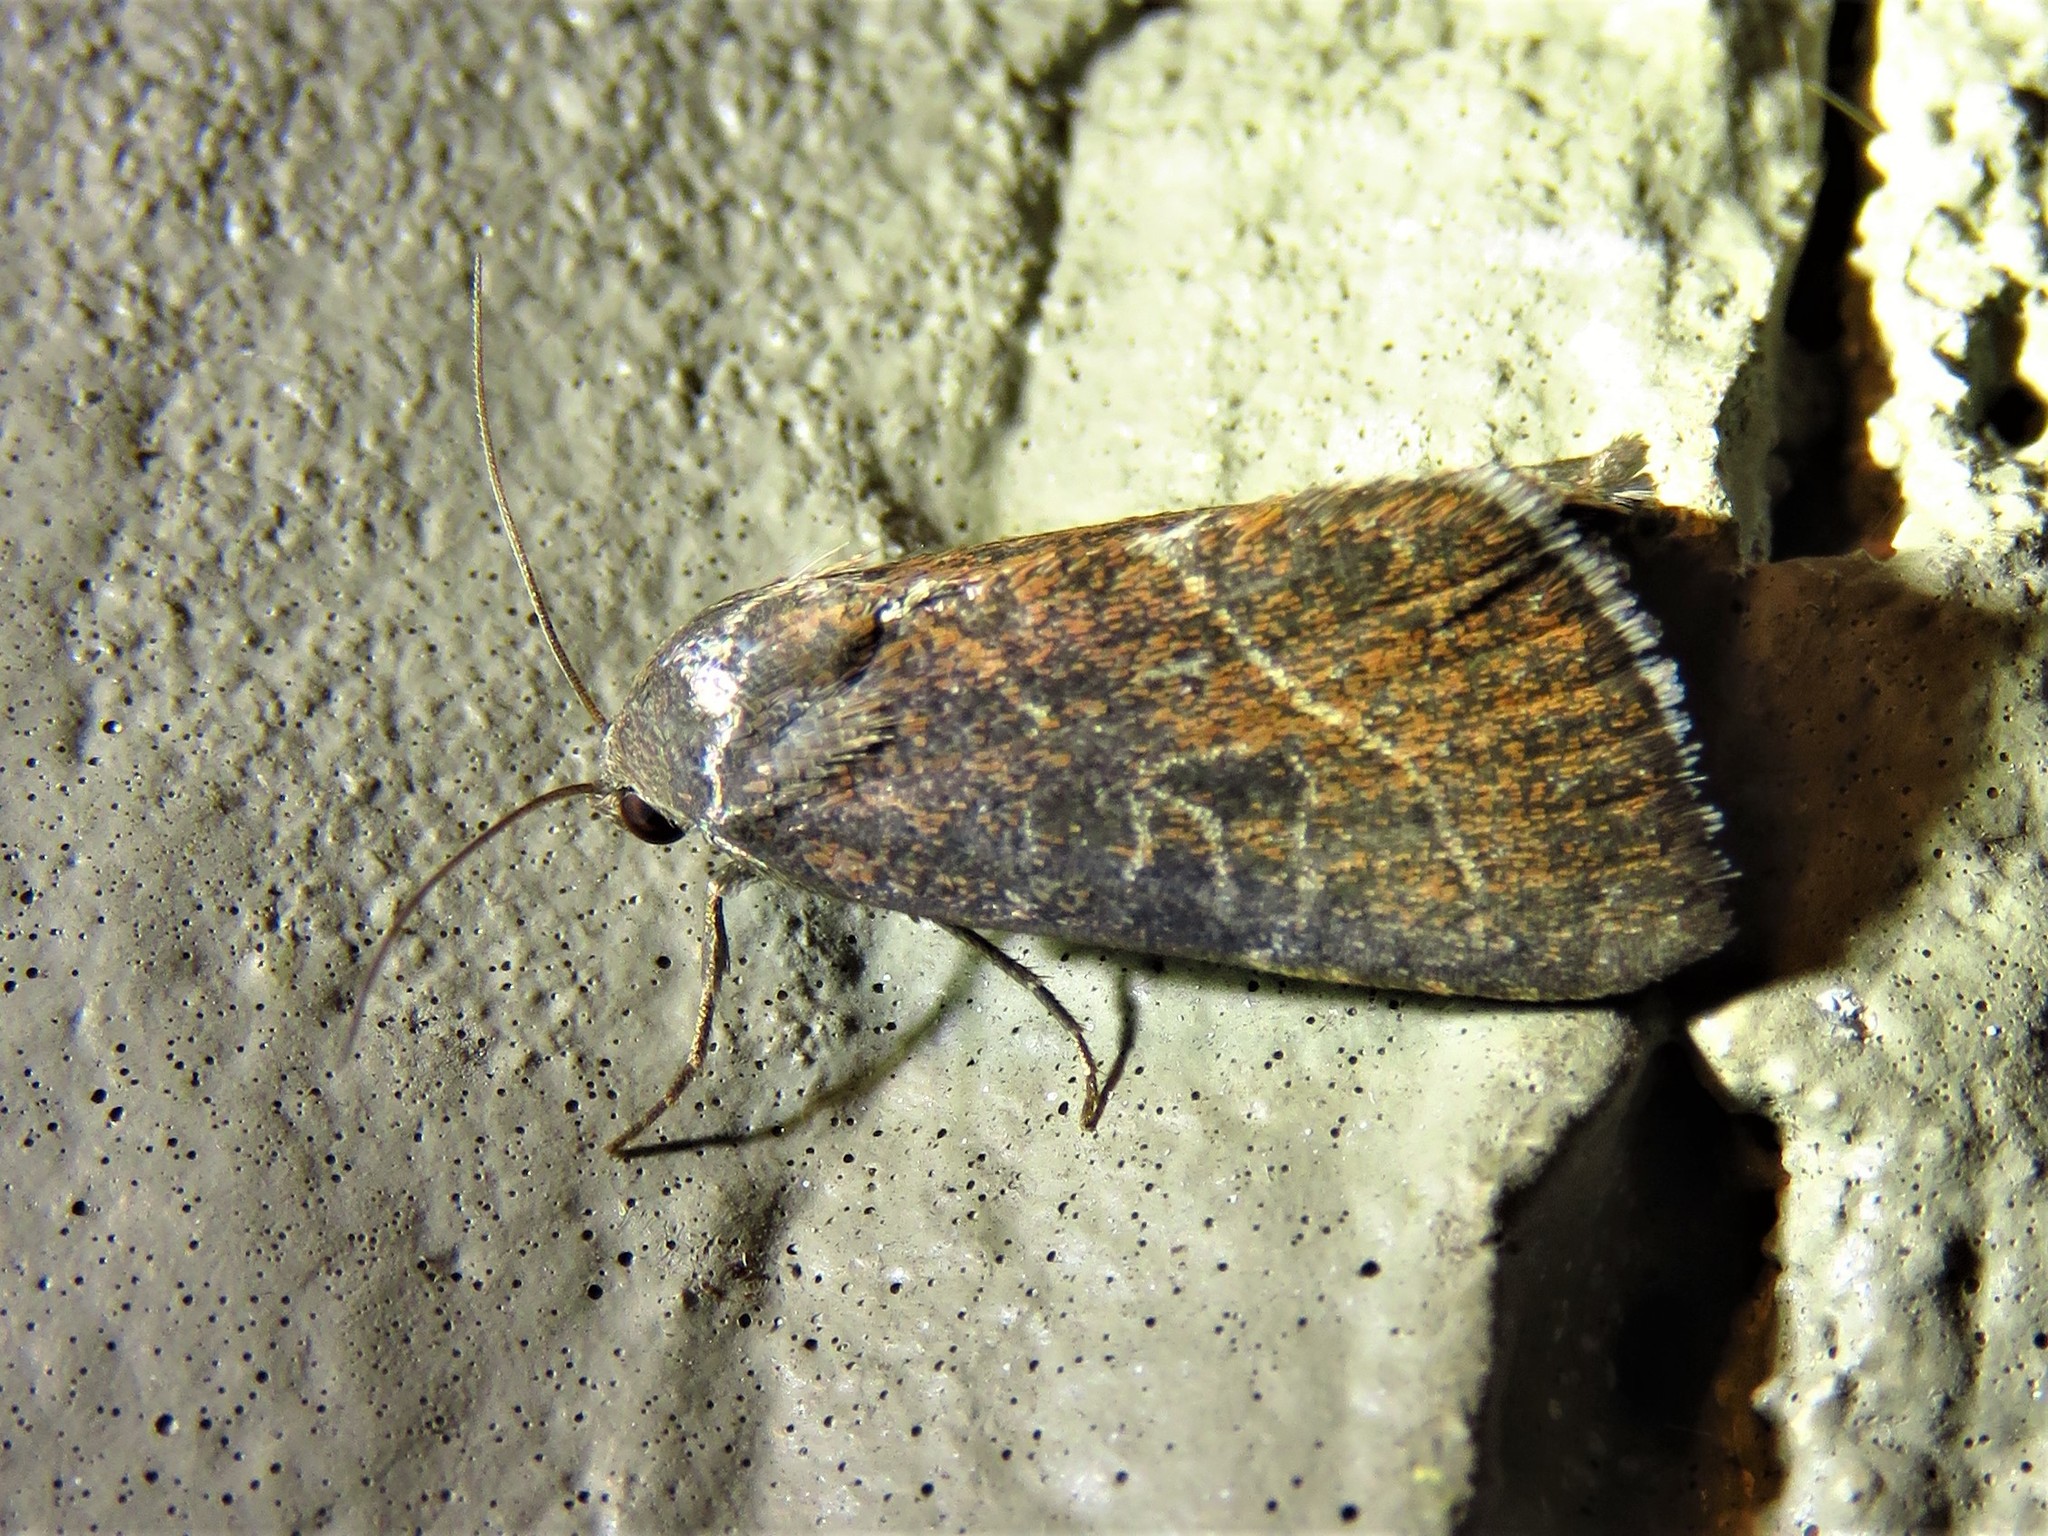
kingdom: Animalia
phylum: Arthropoda
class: Insecta
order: Lepidoptera
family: Noctuidae
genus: Galgula
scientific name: Galgula partita
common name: Wedgeling
